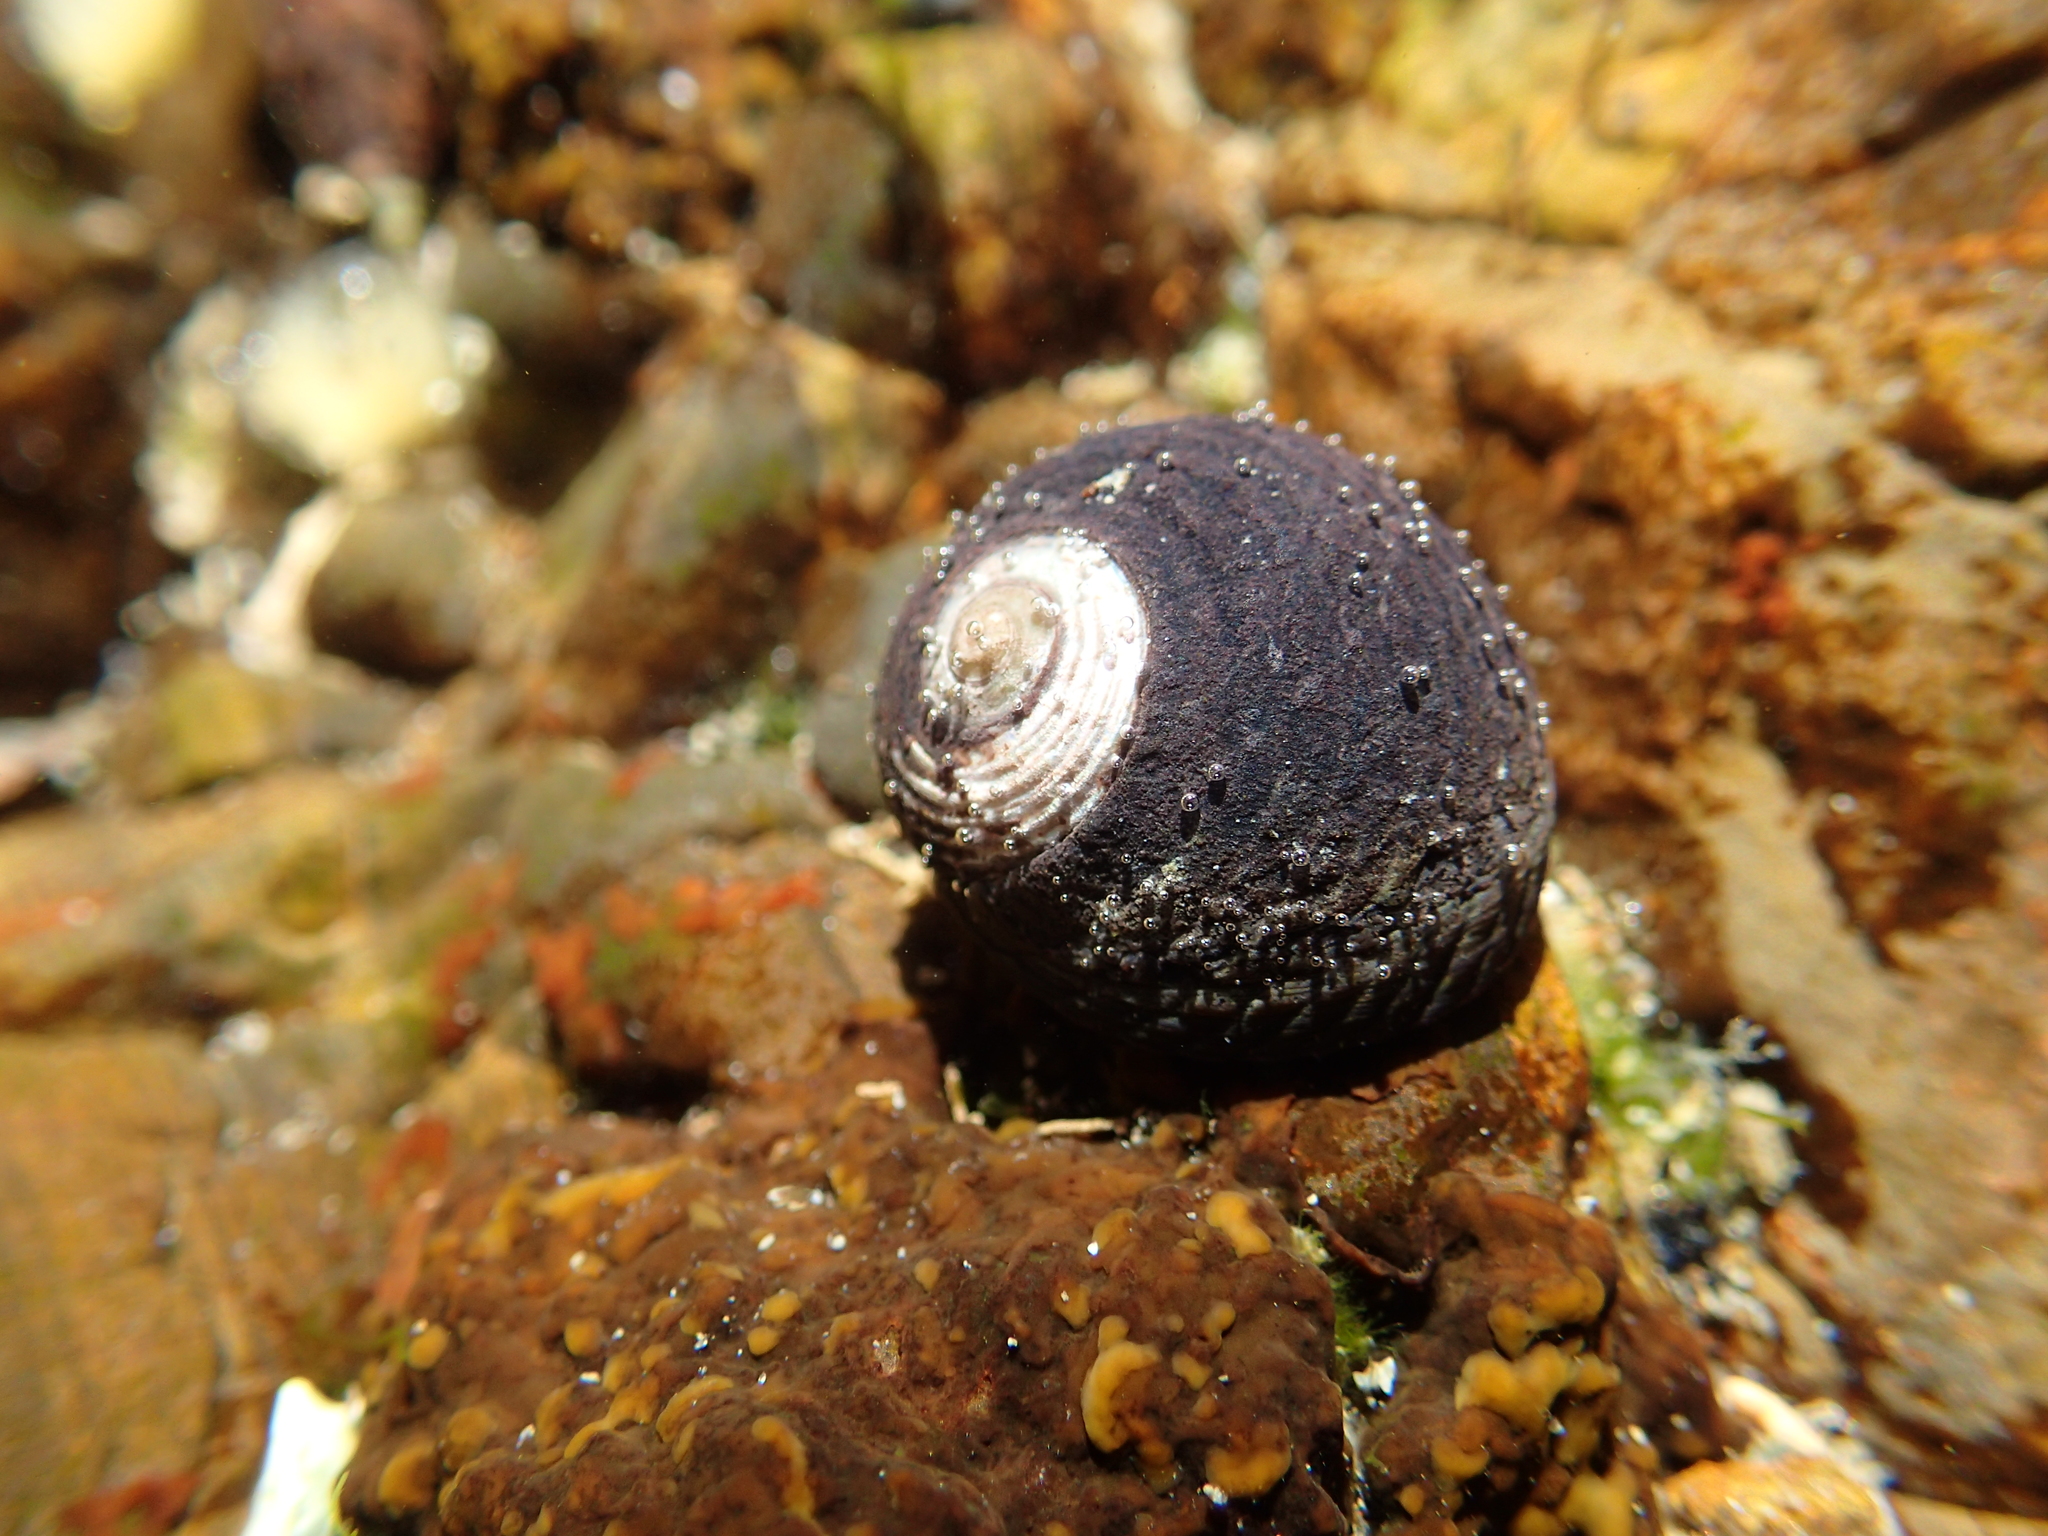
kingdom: Animalia
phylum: Mollusca
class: Gastropoda
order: Trochida
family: Trochidae
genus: Diloma
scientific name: Diloma aethiops
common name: Scorched monodont
